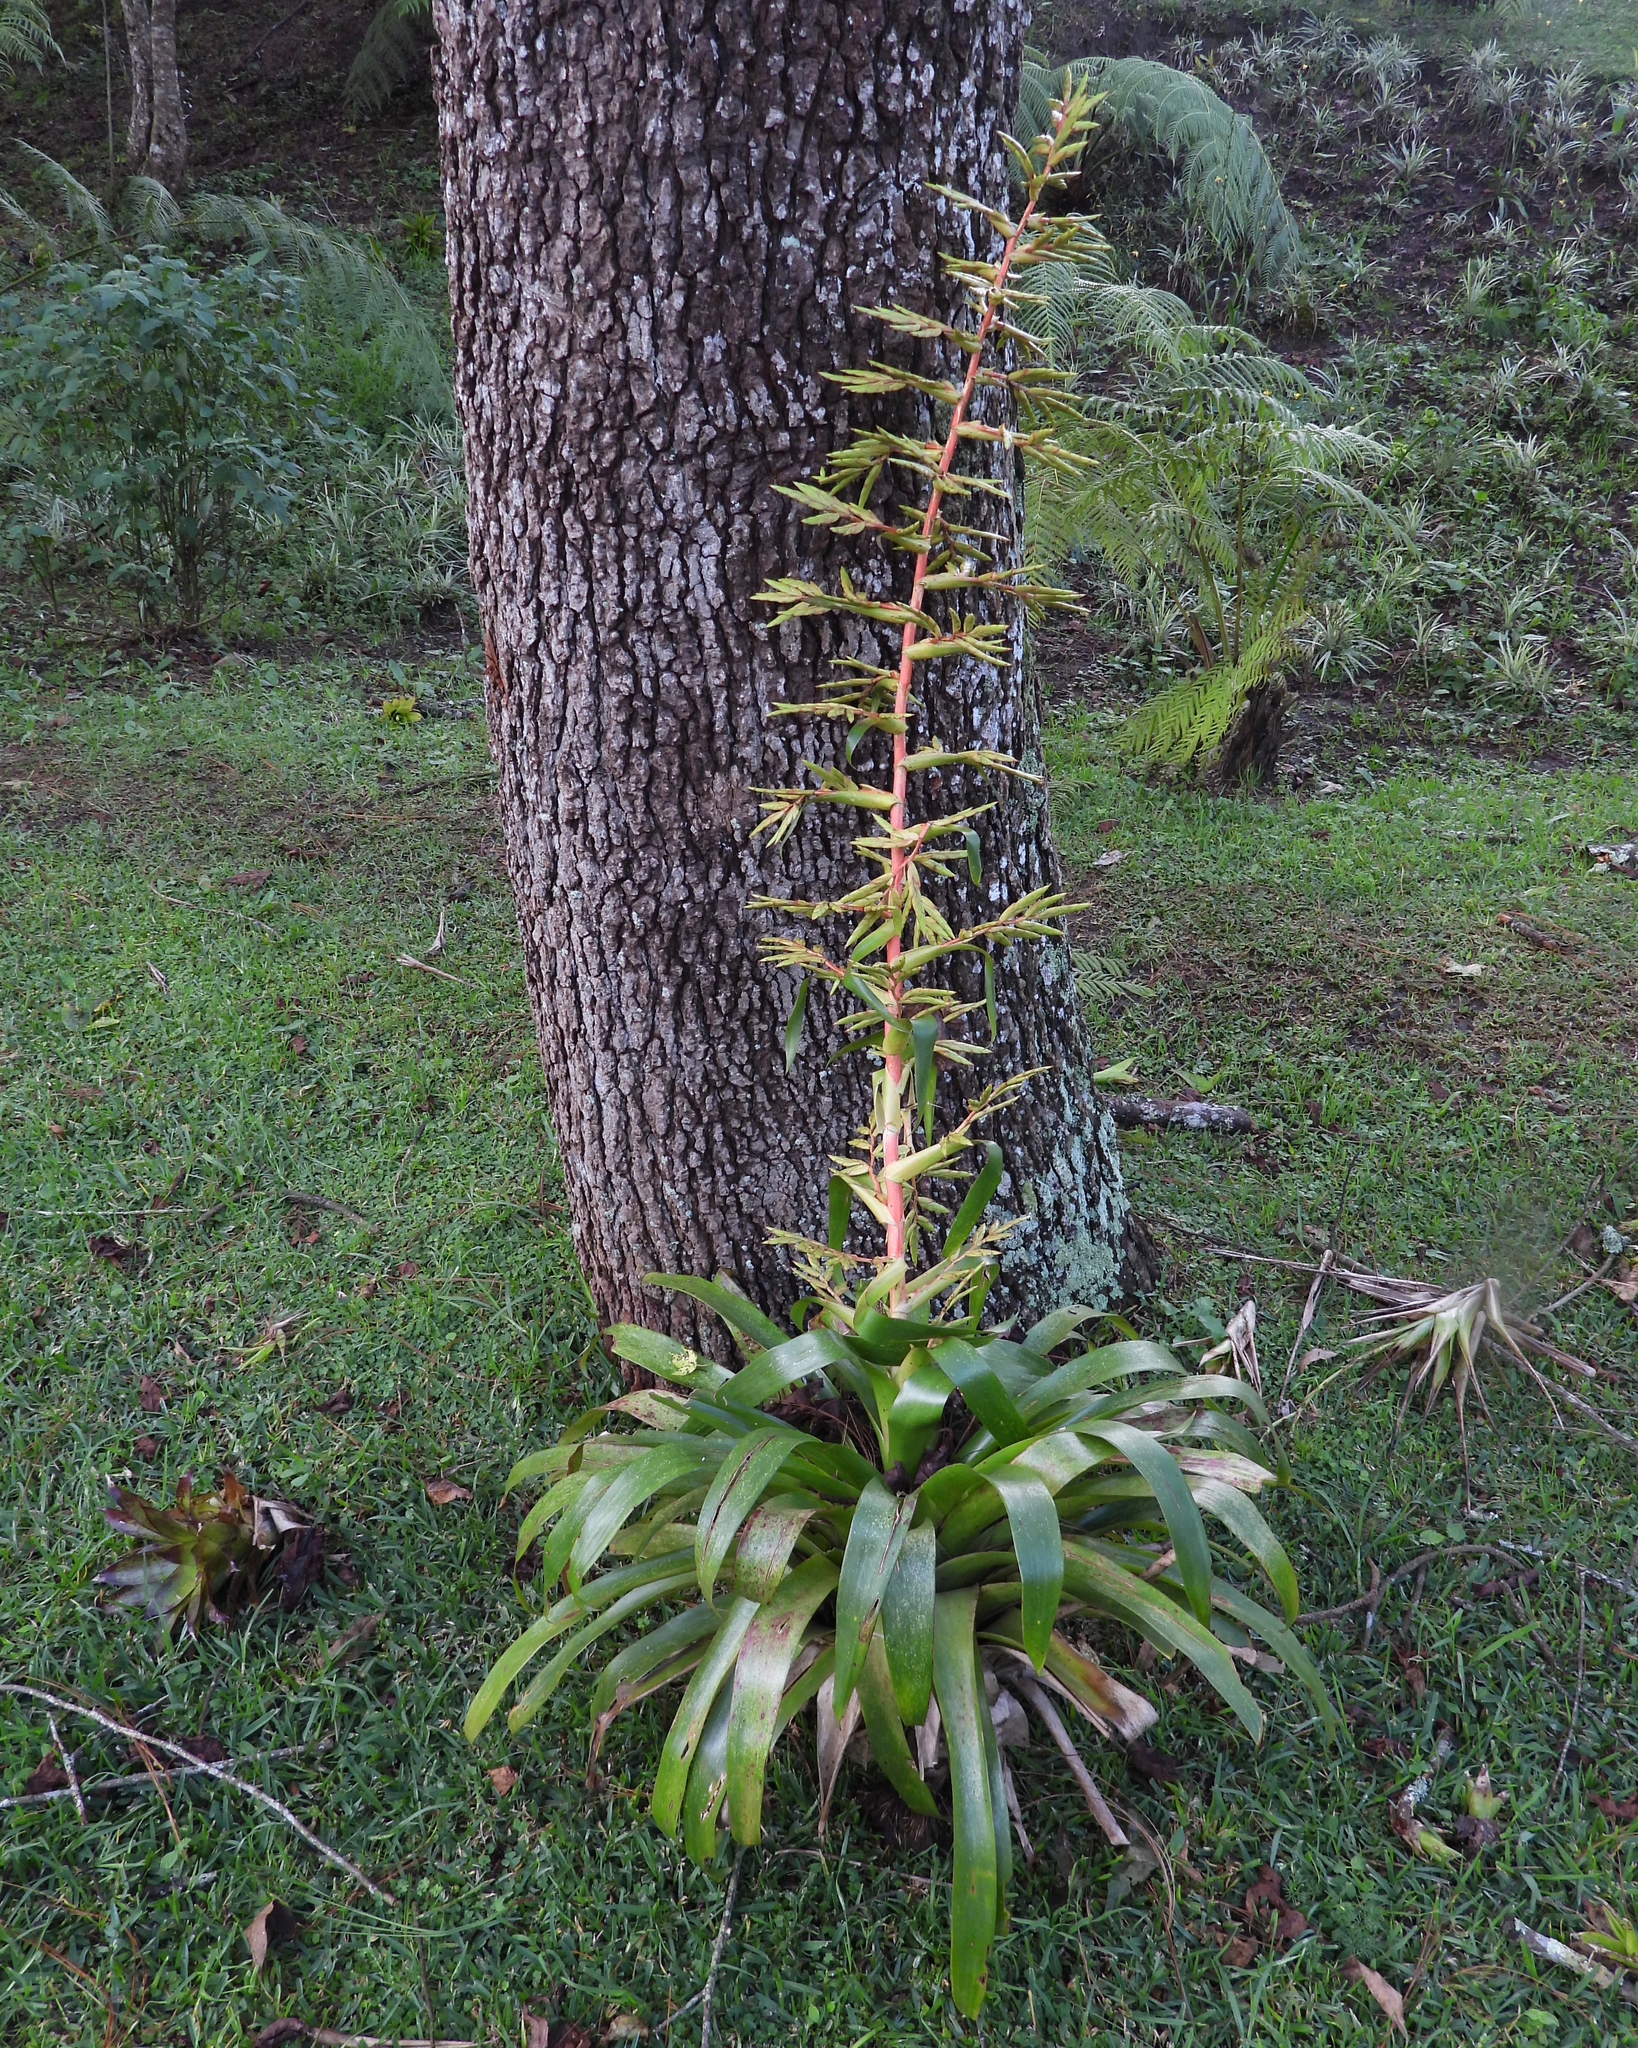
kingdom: Plantae
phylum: Tracheophyta
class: Liliopsida
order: Poales
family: Bromeliaceae
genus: Tillandsia
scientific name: Tillandsia guatemalensis
